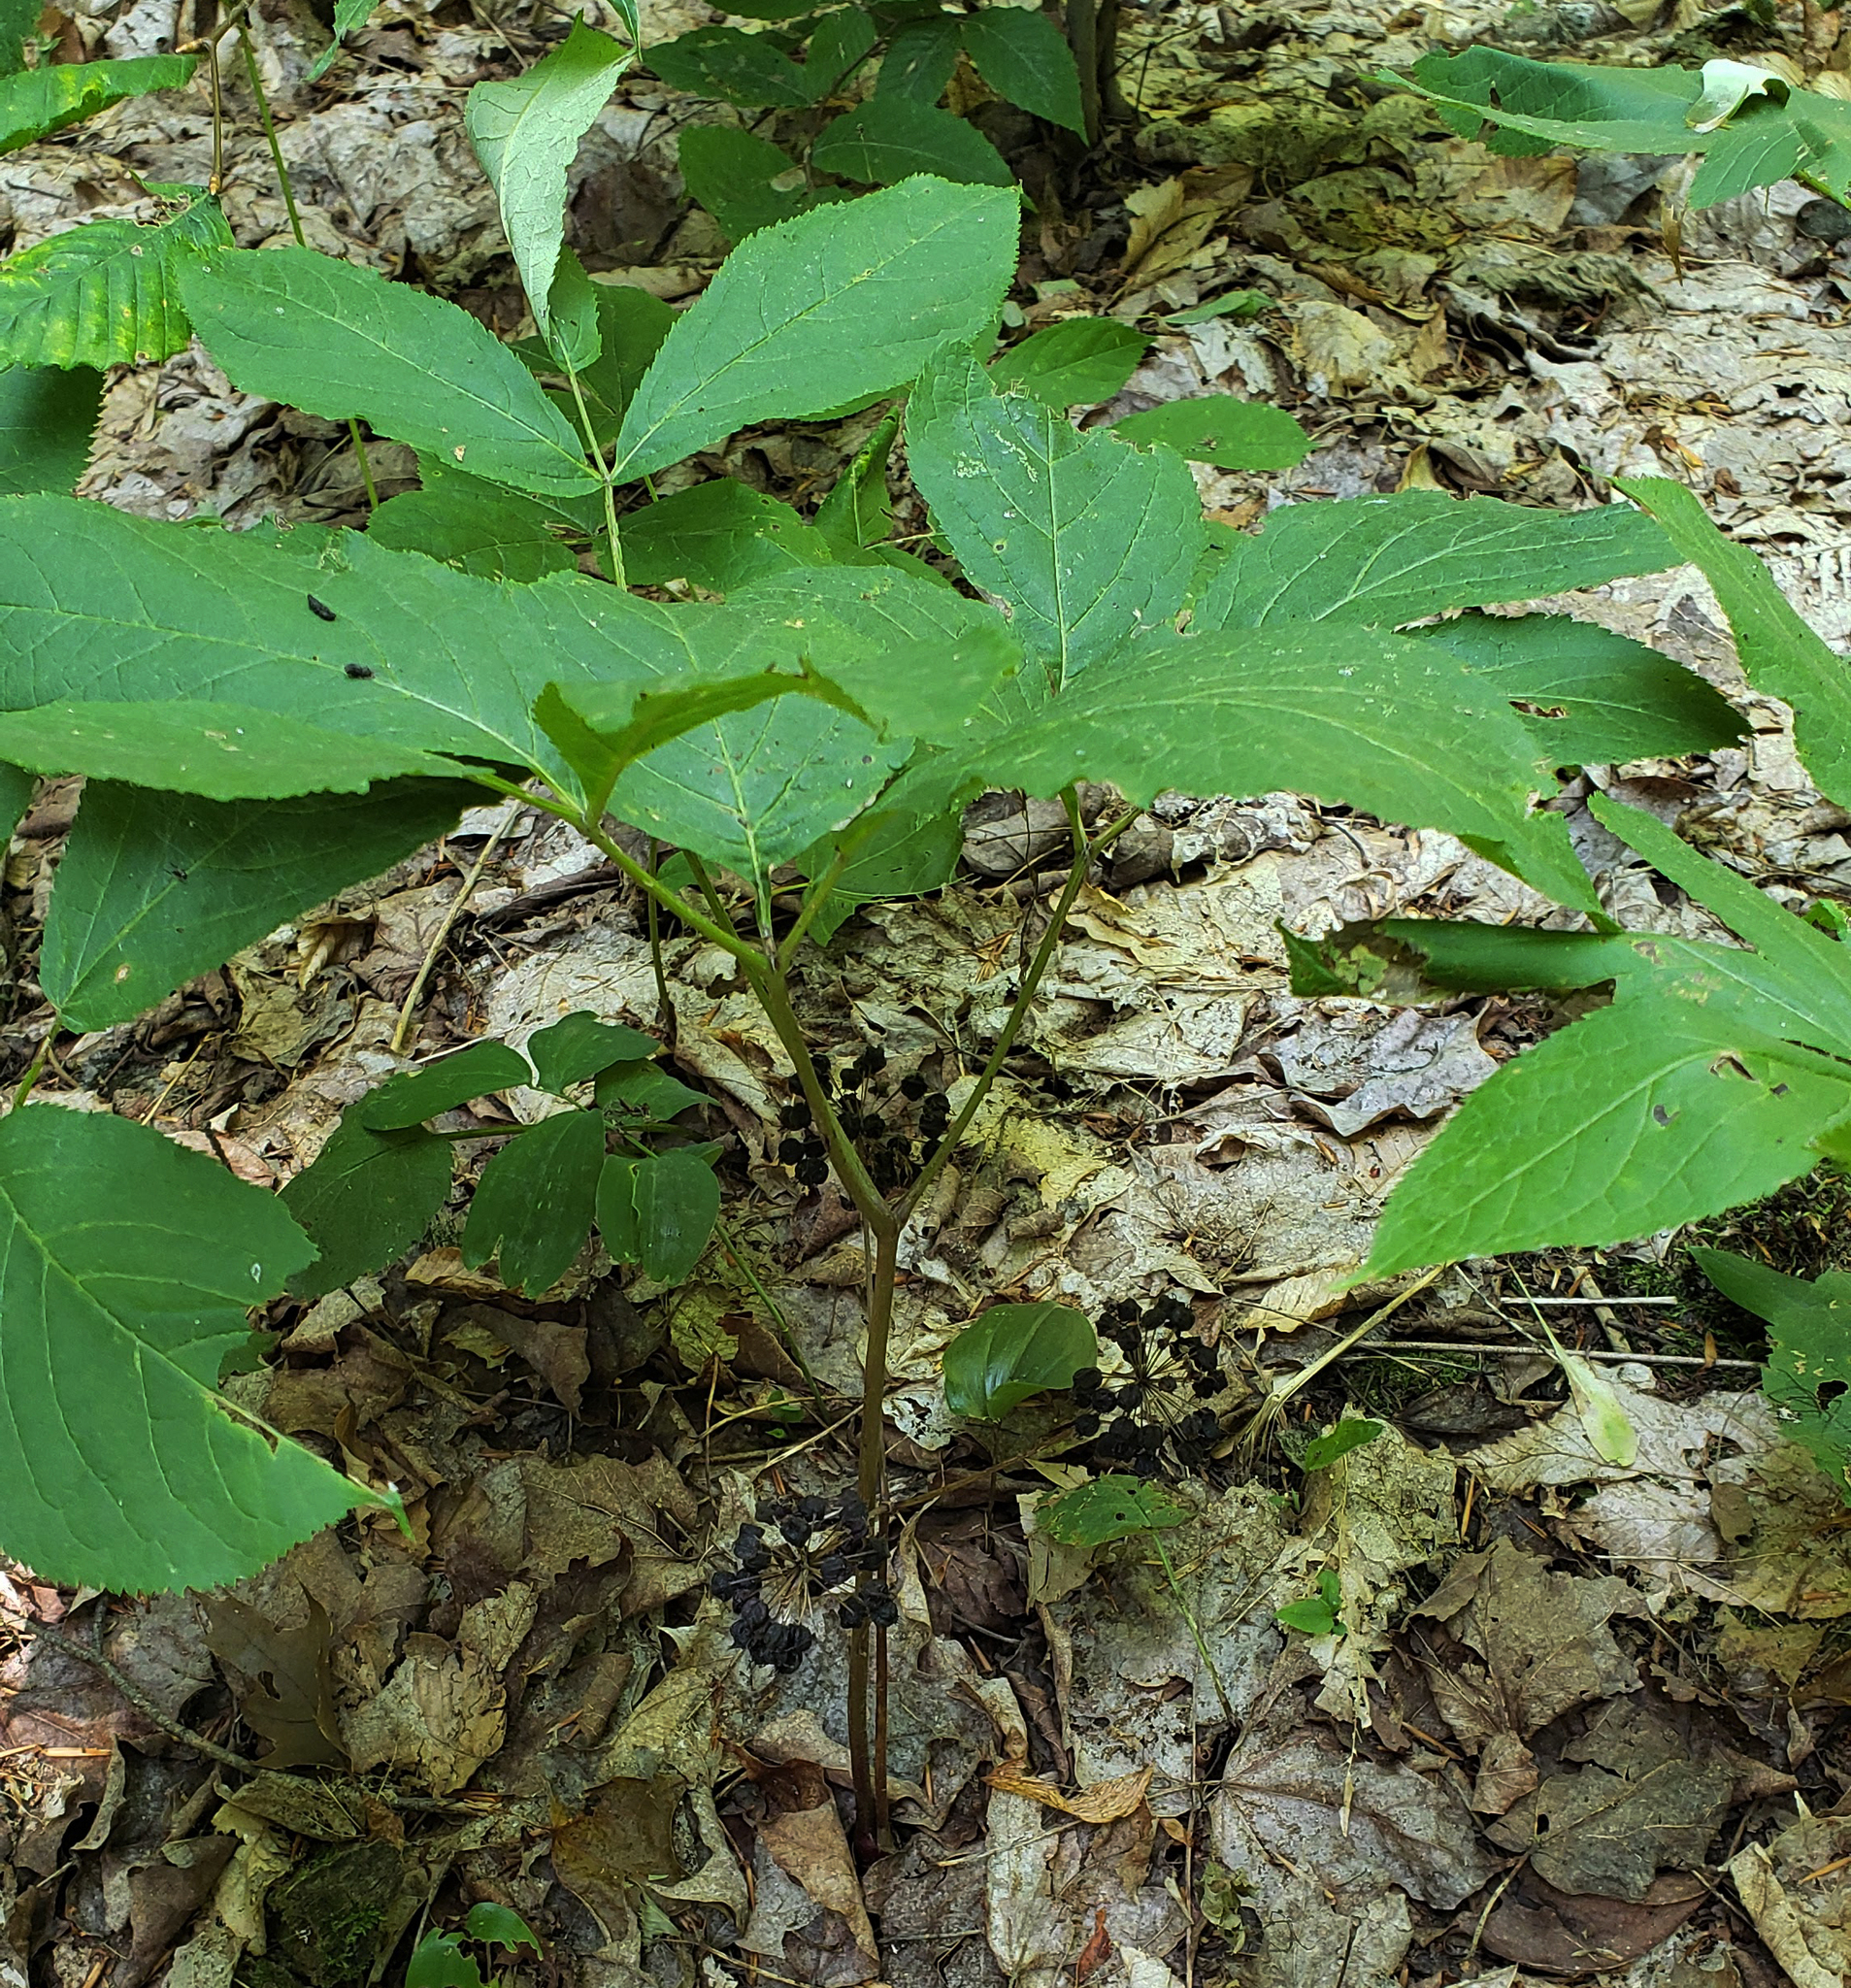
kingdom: Plantae
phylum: Tracheophyta
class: Magnoliopsida
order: Apiales
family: Araliaceae
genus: Aralia
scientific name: Aralia nudicaulis
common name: Wild sarsaparilla
